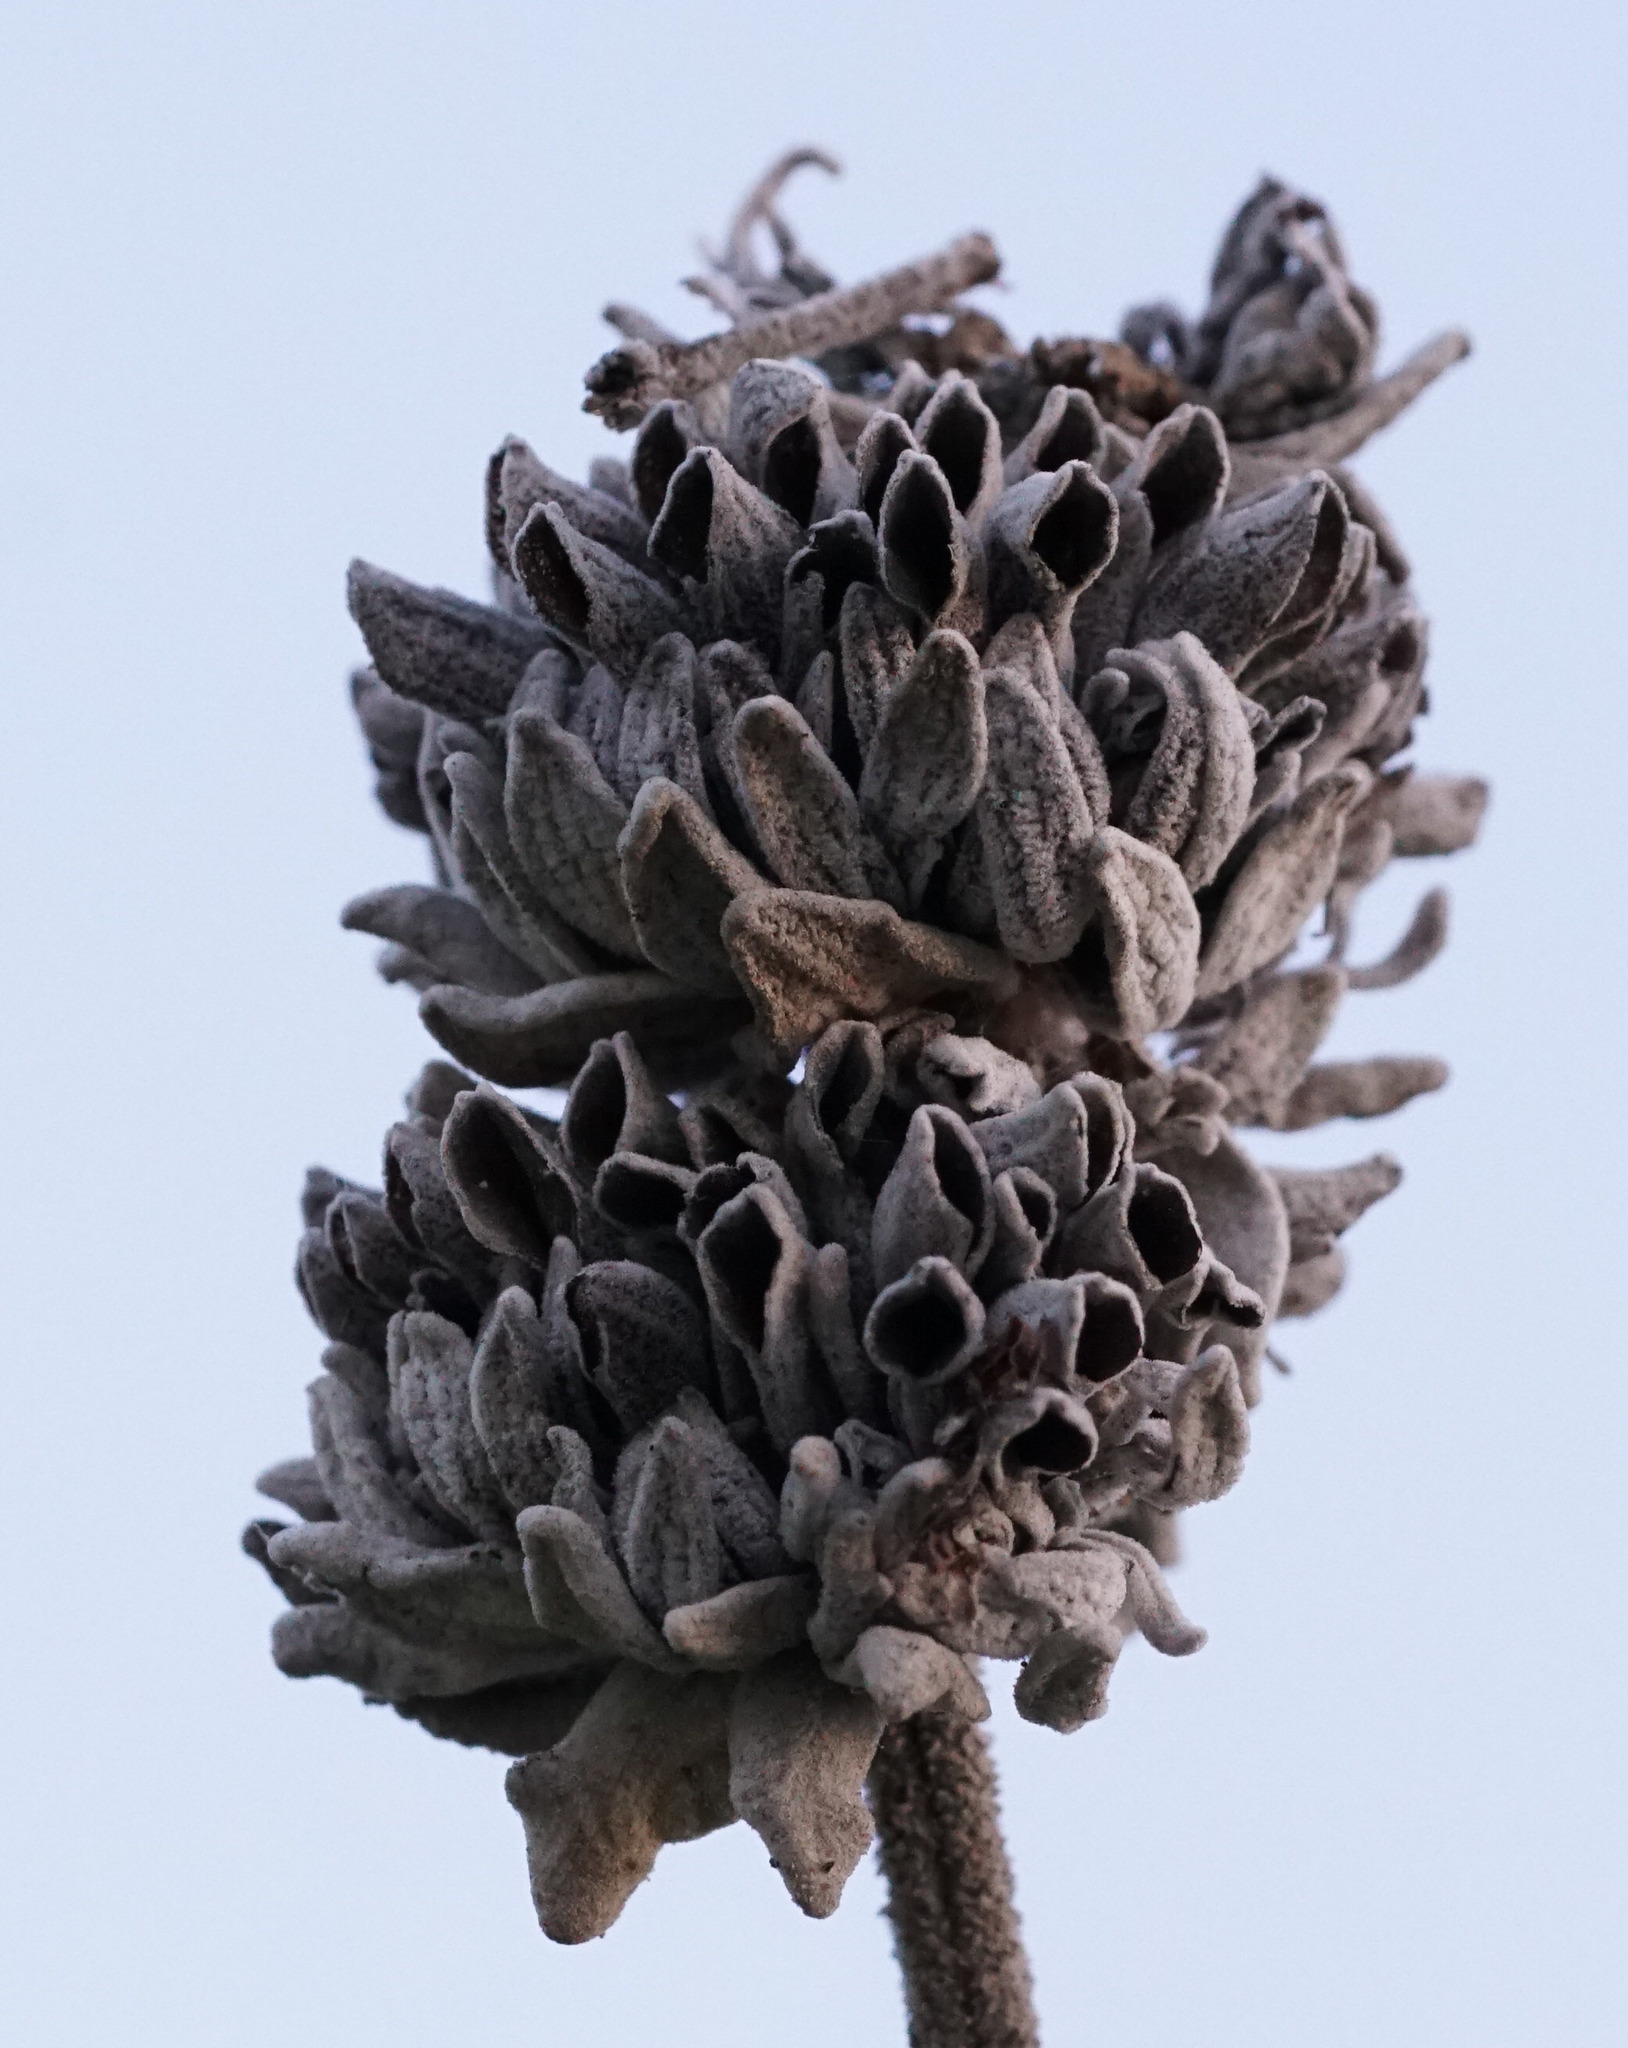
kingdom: Plantae
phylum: Tracheophyta
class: Magnoliopsida
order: Lamiales
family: Lamiaceae
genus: Salvia
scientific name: Salvia leucophylla
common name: Purple sage
